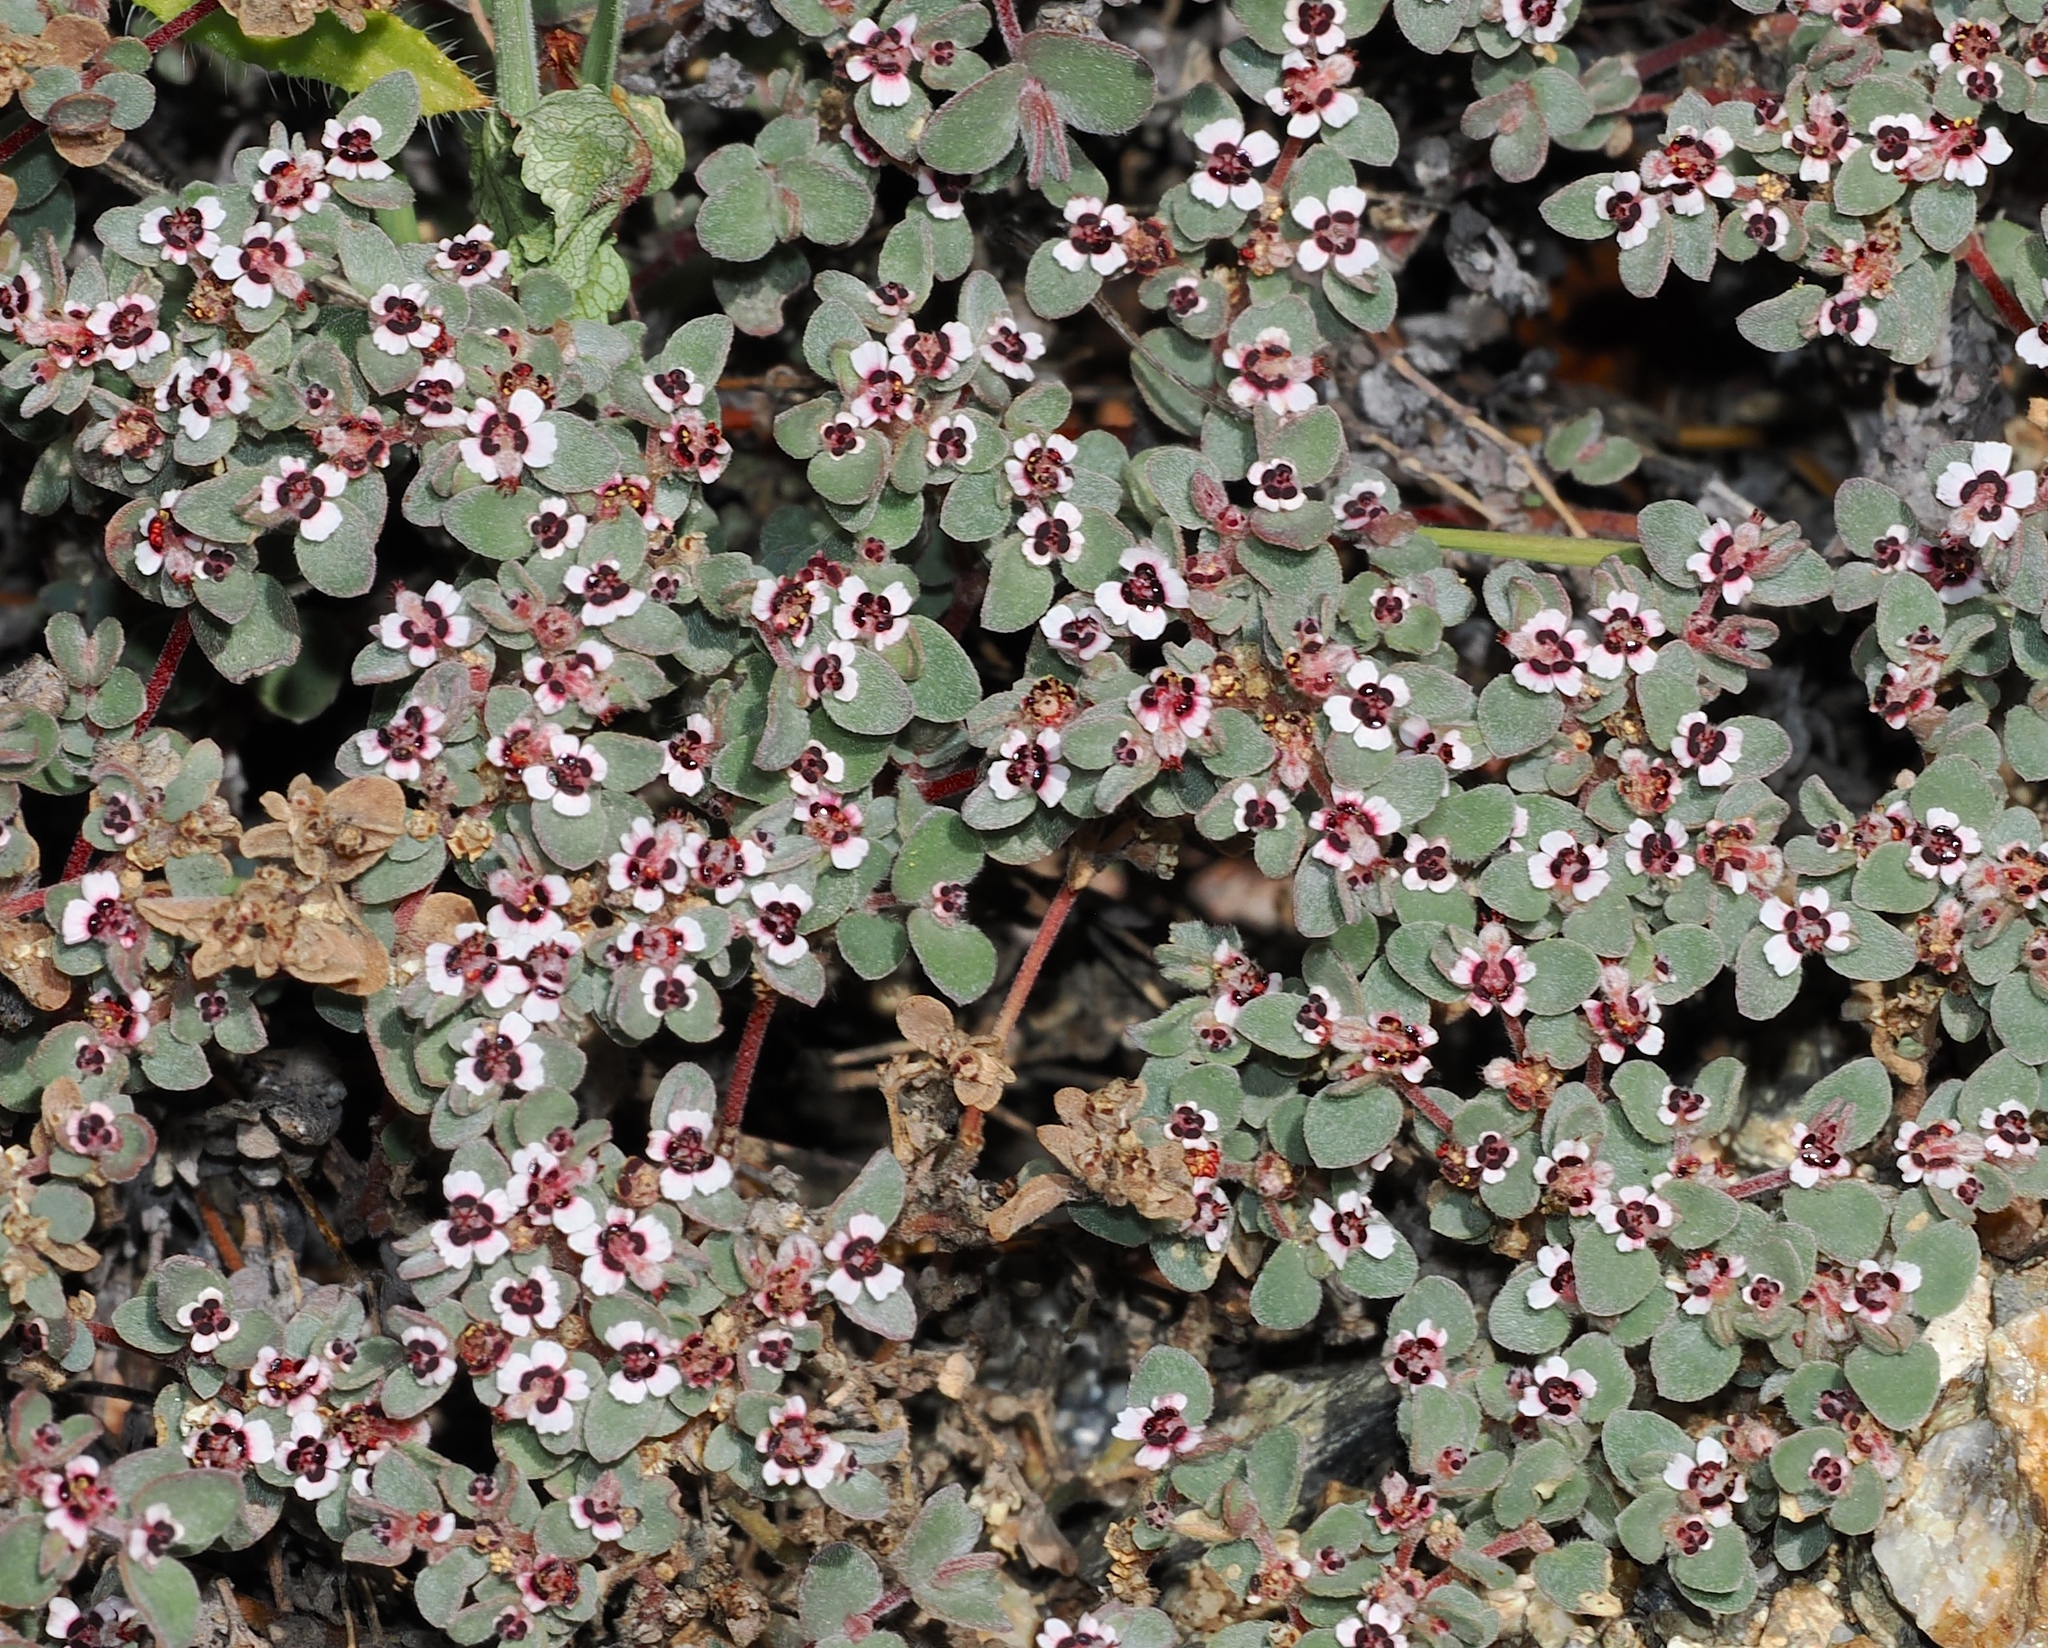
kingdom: Plantae
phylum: Tracheophyta
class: Magnoliopsida
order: Malpighiales
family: Euphorbiaceae
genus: Euphorbia
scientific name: Euphorbia melanadenia
